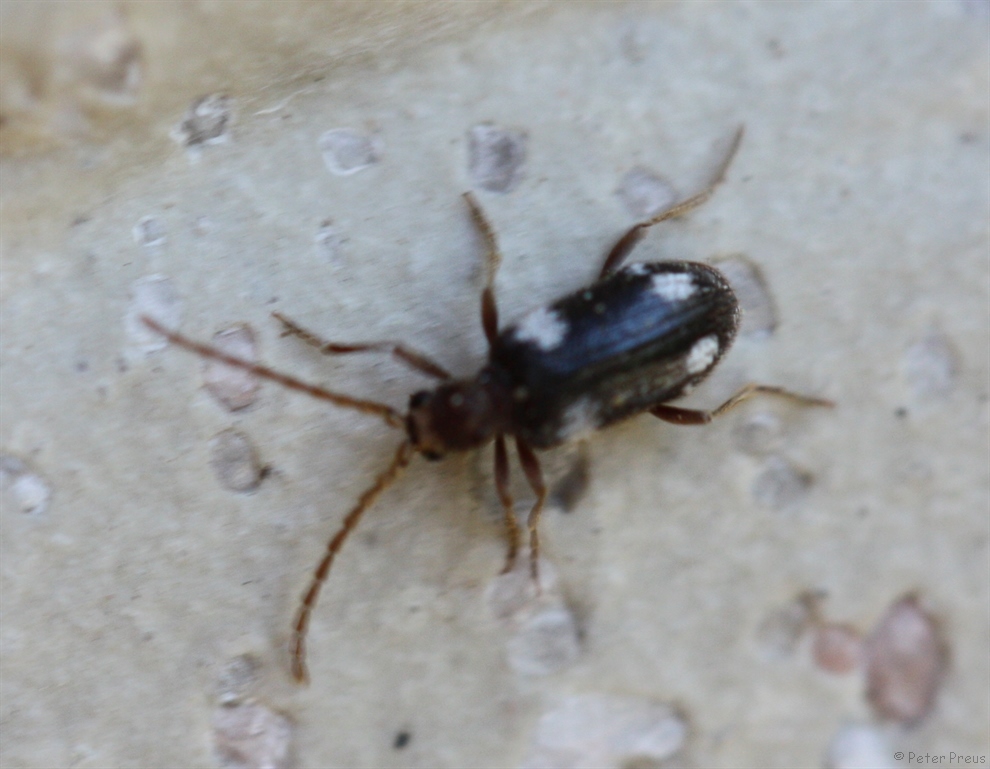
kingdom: Animalia
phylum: Arthropoda
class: Insecta
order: Coleoptera
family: Ptinidae
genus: Ptinus
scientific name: Ptinus sexpunctatus
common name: Six-spotted spider beetle
